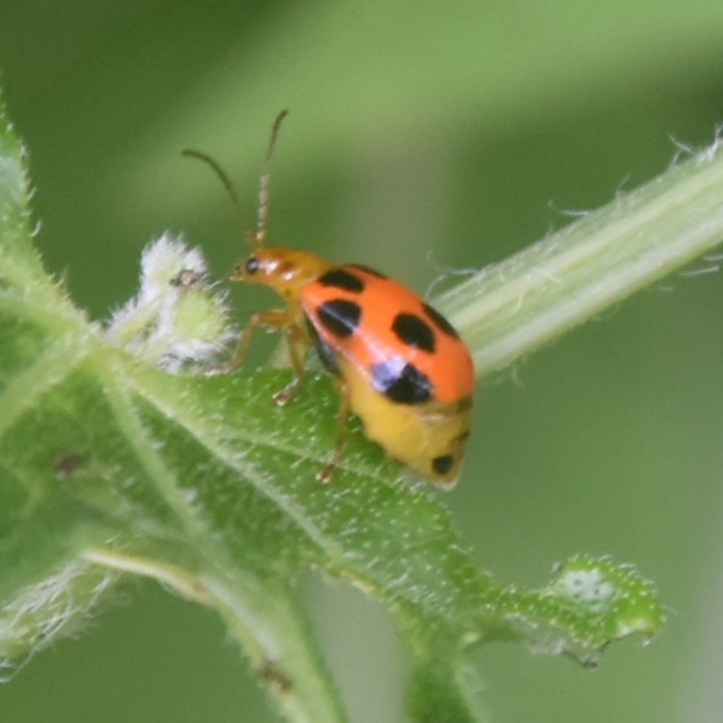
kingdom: Animalia
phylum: Arthropoda
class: Insecta
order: Coleoptera
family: Chrysomelidae
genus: Paridea
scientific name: Paridea
